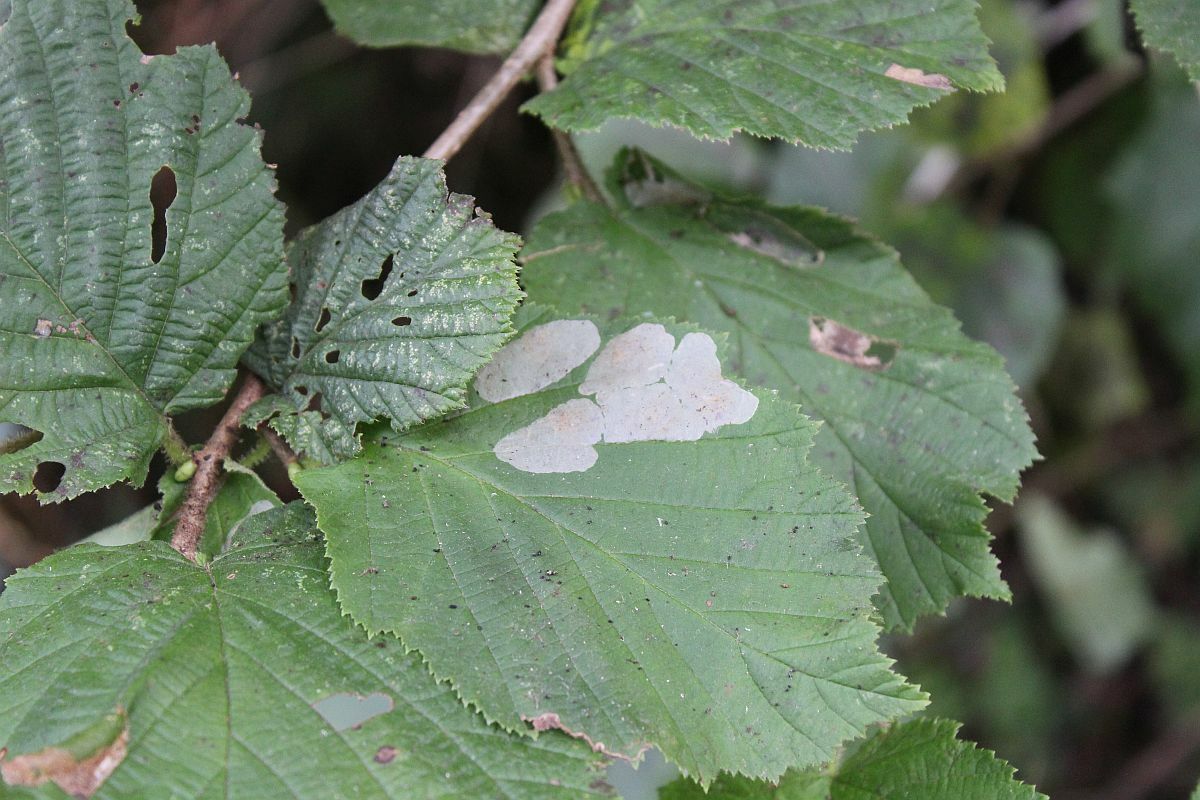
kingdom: Animalia
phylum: Arthropoda
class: Insecta
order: Lepidoptera
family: Gracillariidae
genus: Phyllonorycter
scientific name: Phyllonorycter coryli
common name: Nut-leaf blister moth
